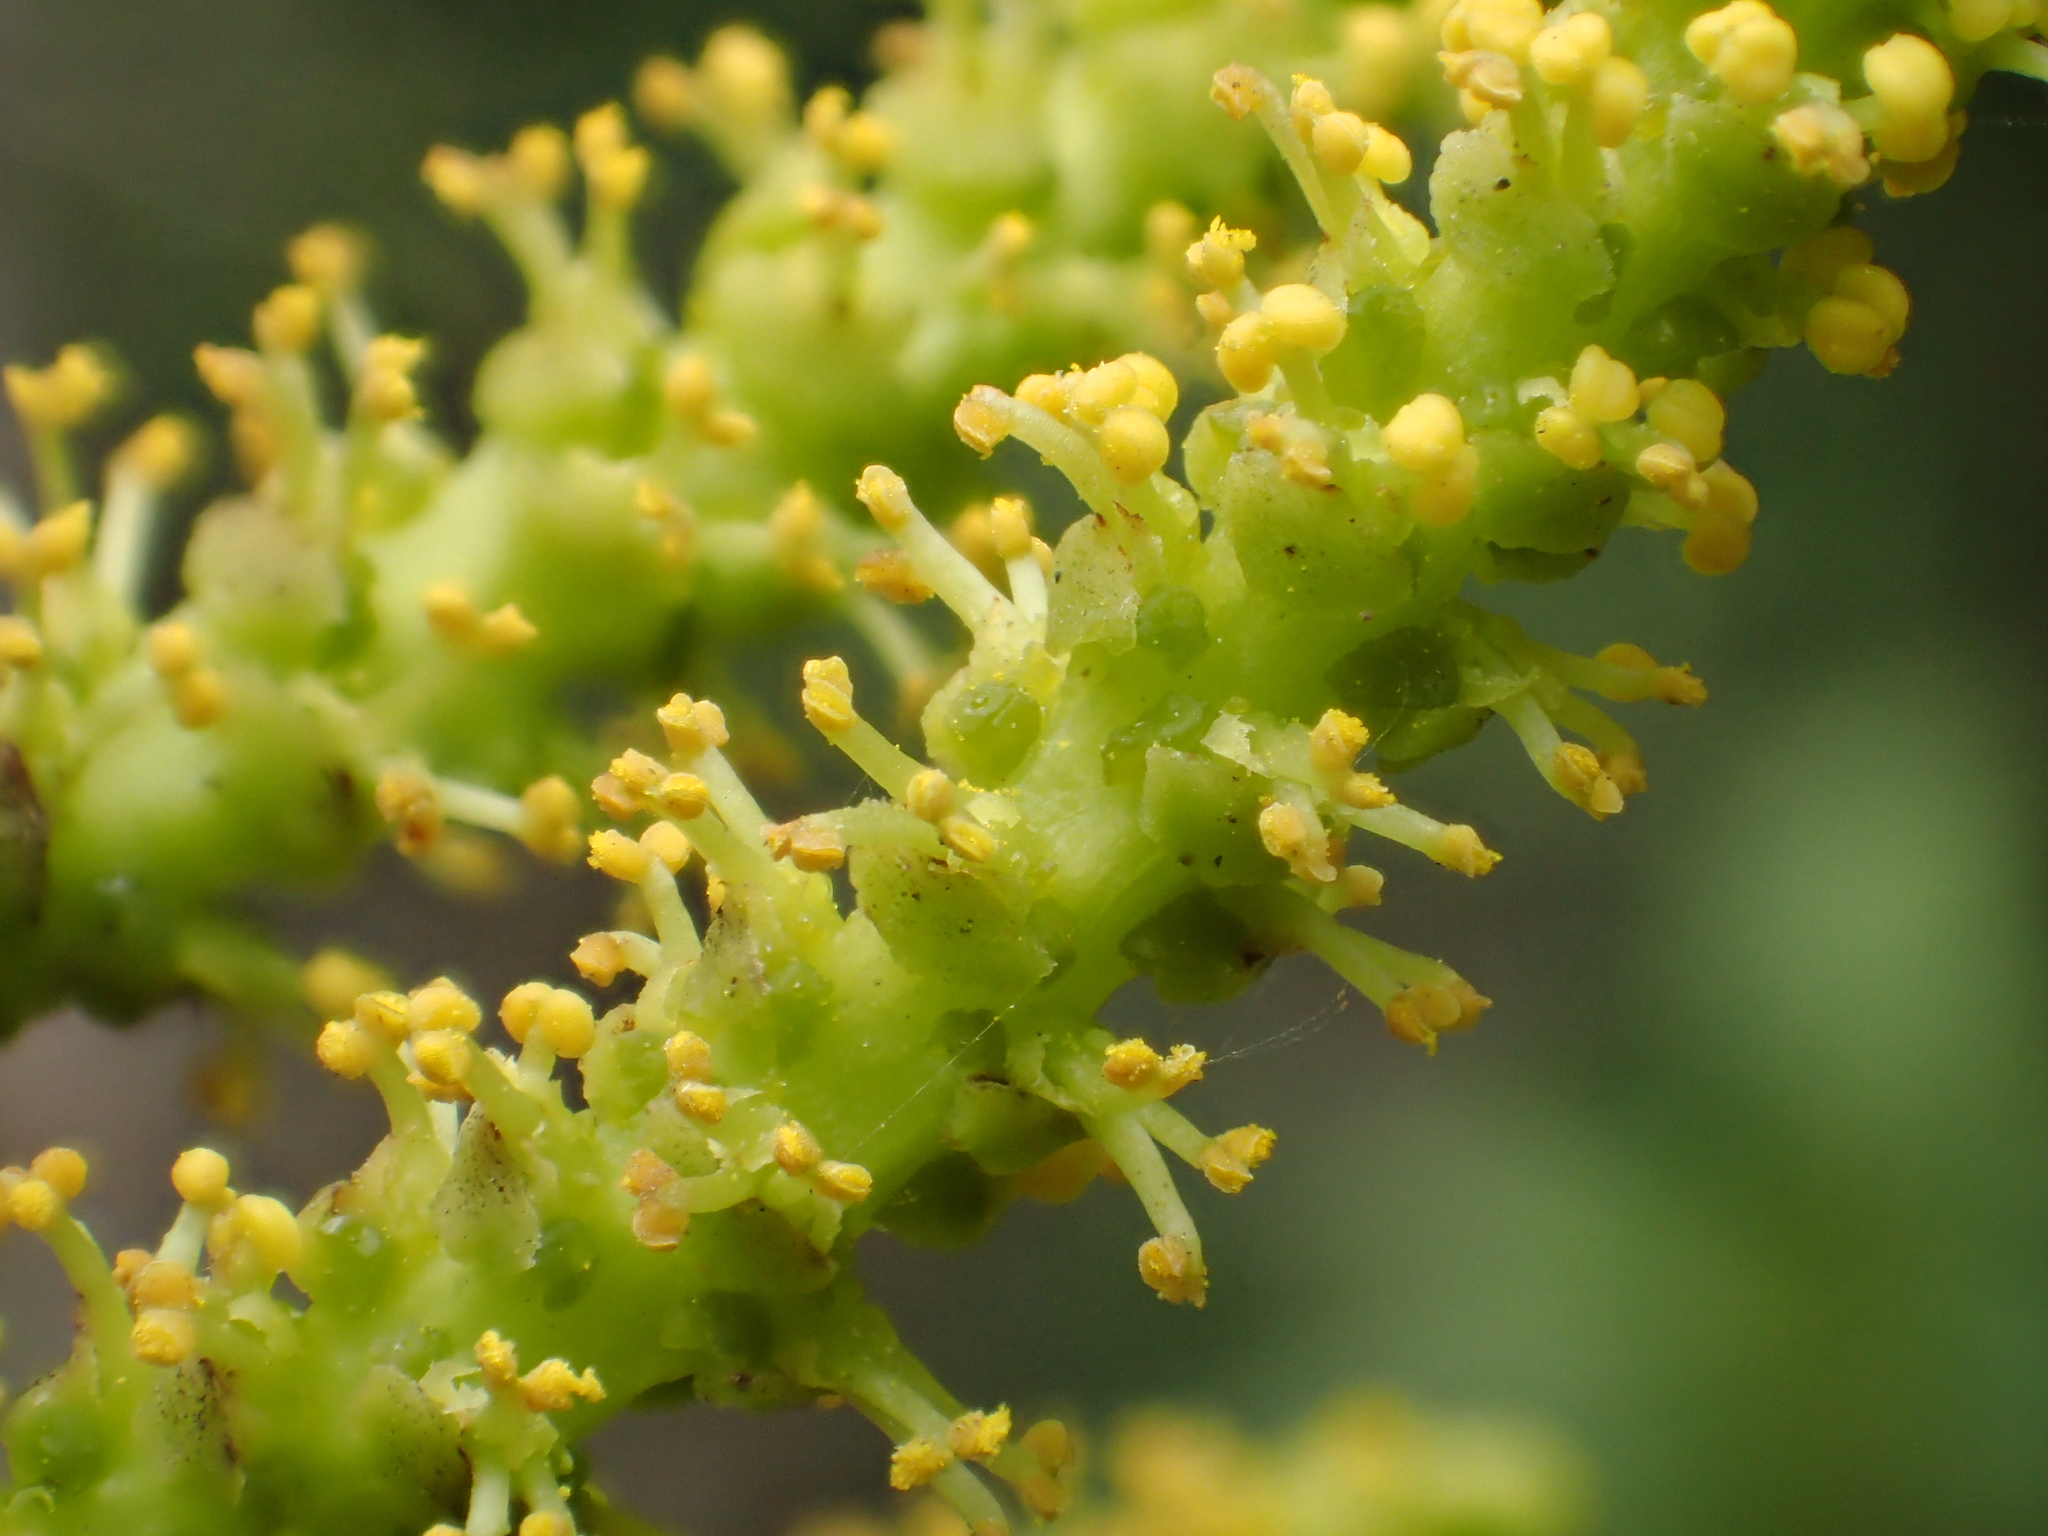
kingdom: Plantae
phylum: Tracheophyta
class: Magnoliopsida
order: Malpighiales
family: Euphorbiaceae
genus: Excoecaria
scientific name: Excoecaria agallocha
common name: River poisontree
